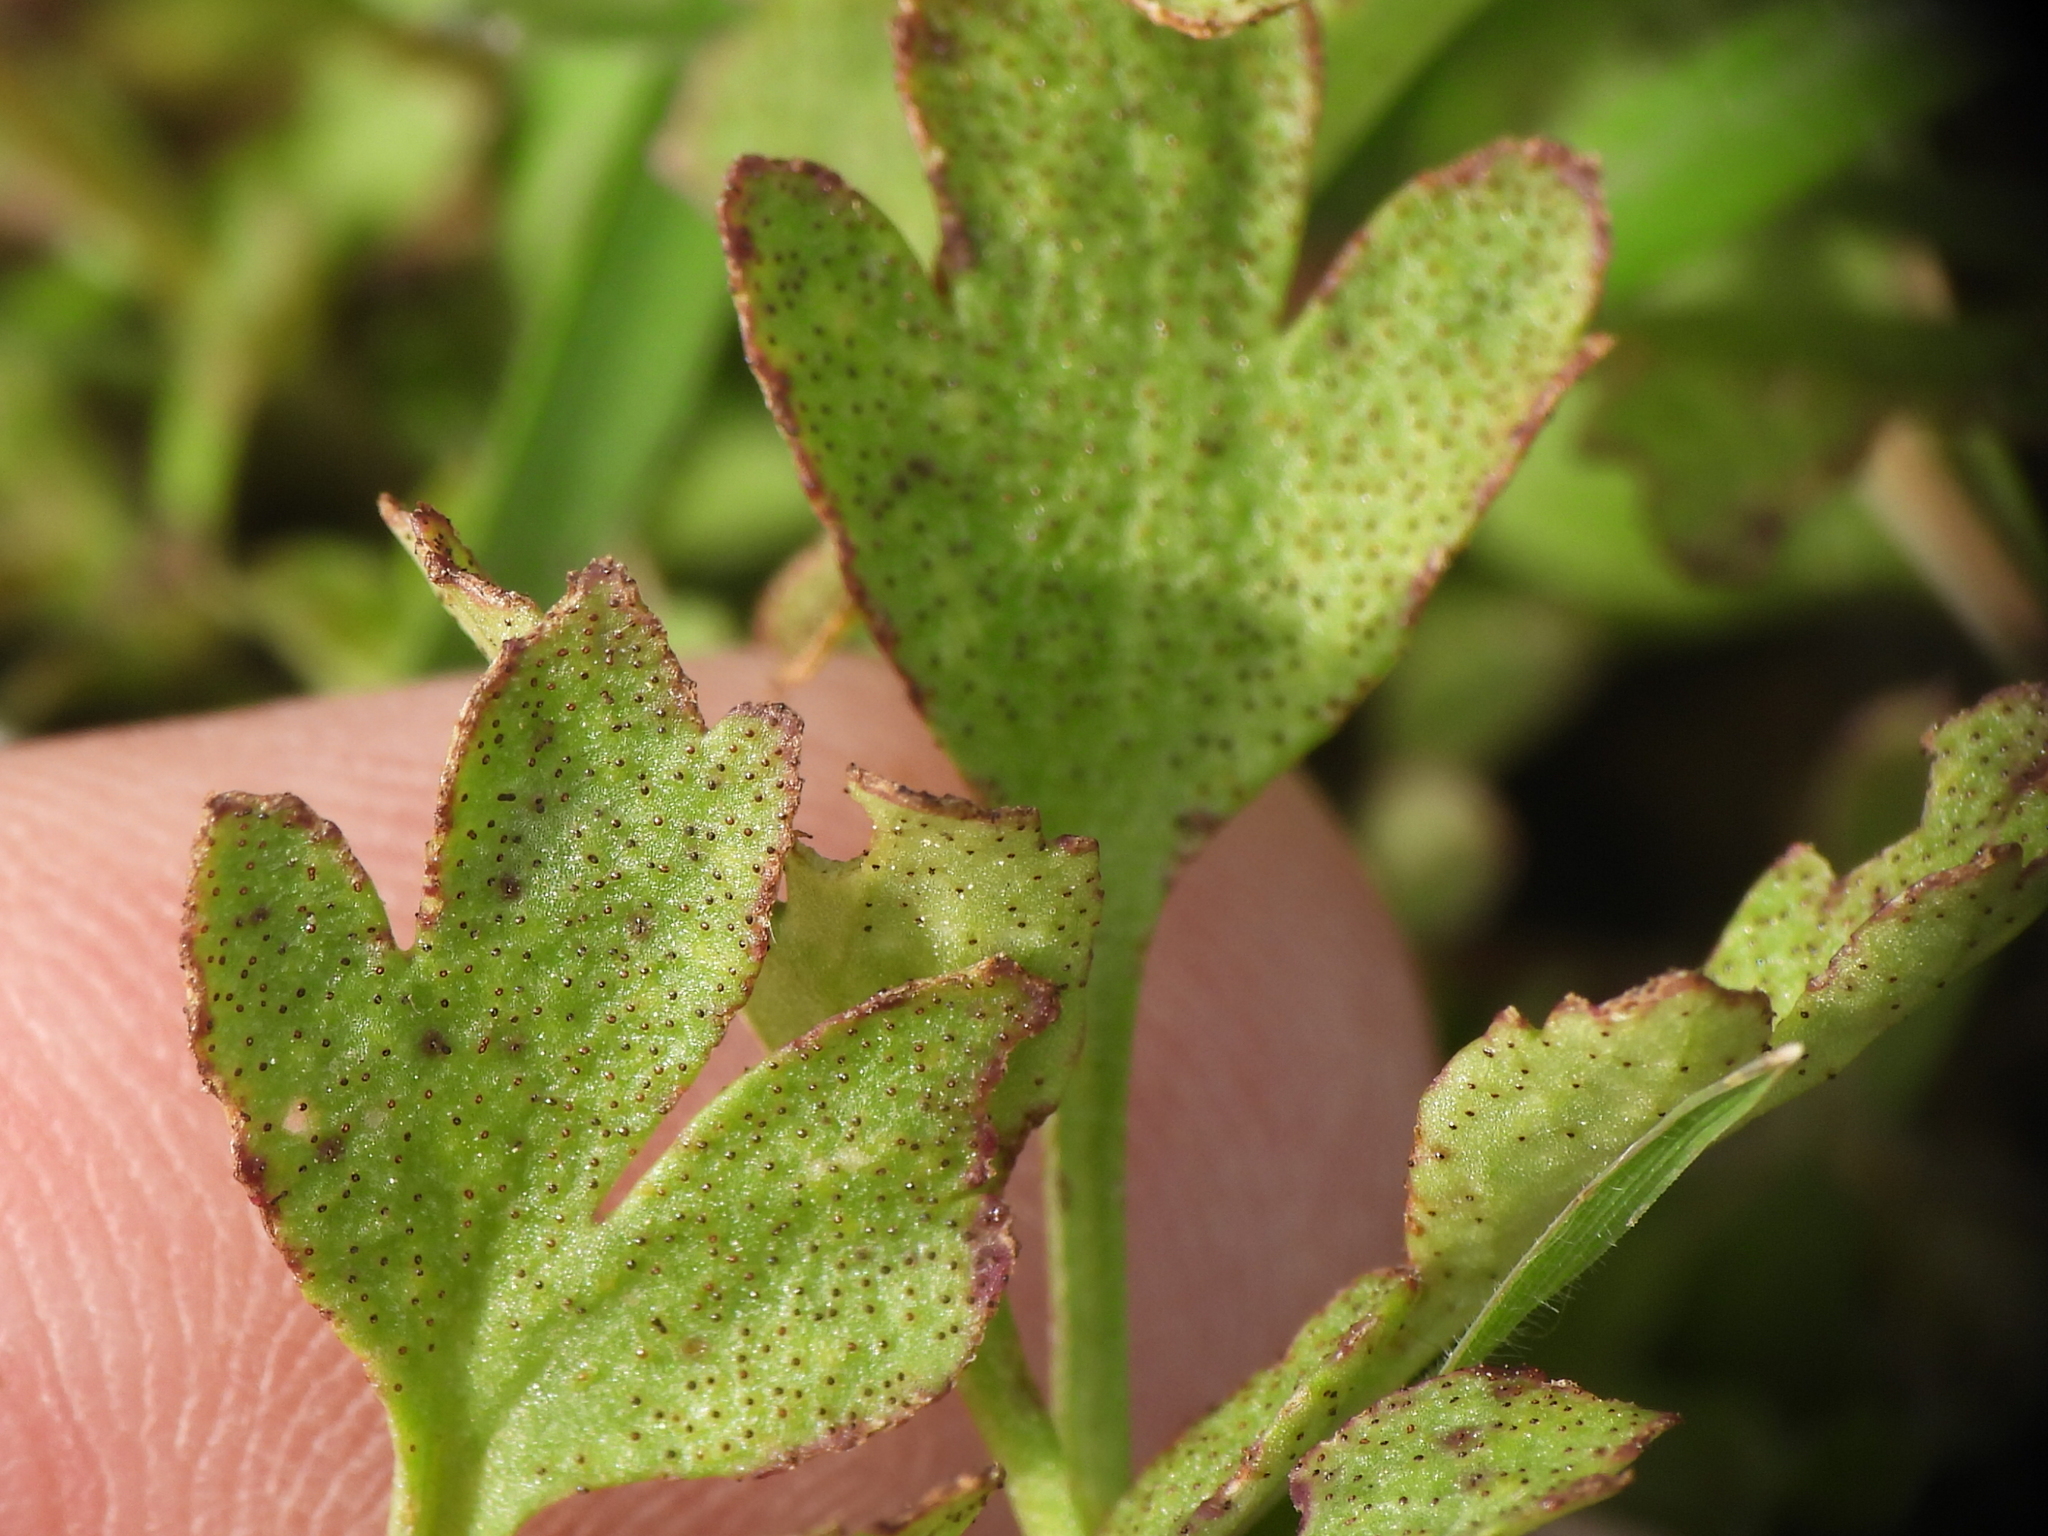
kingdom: Fungi
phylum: Basidiomycota
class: Pucciniomycetes
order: Pucciniales
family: Tranzscheliaceae
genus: Tranzschelia
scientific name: Tranzschelia cohaesa
